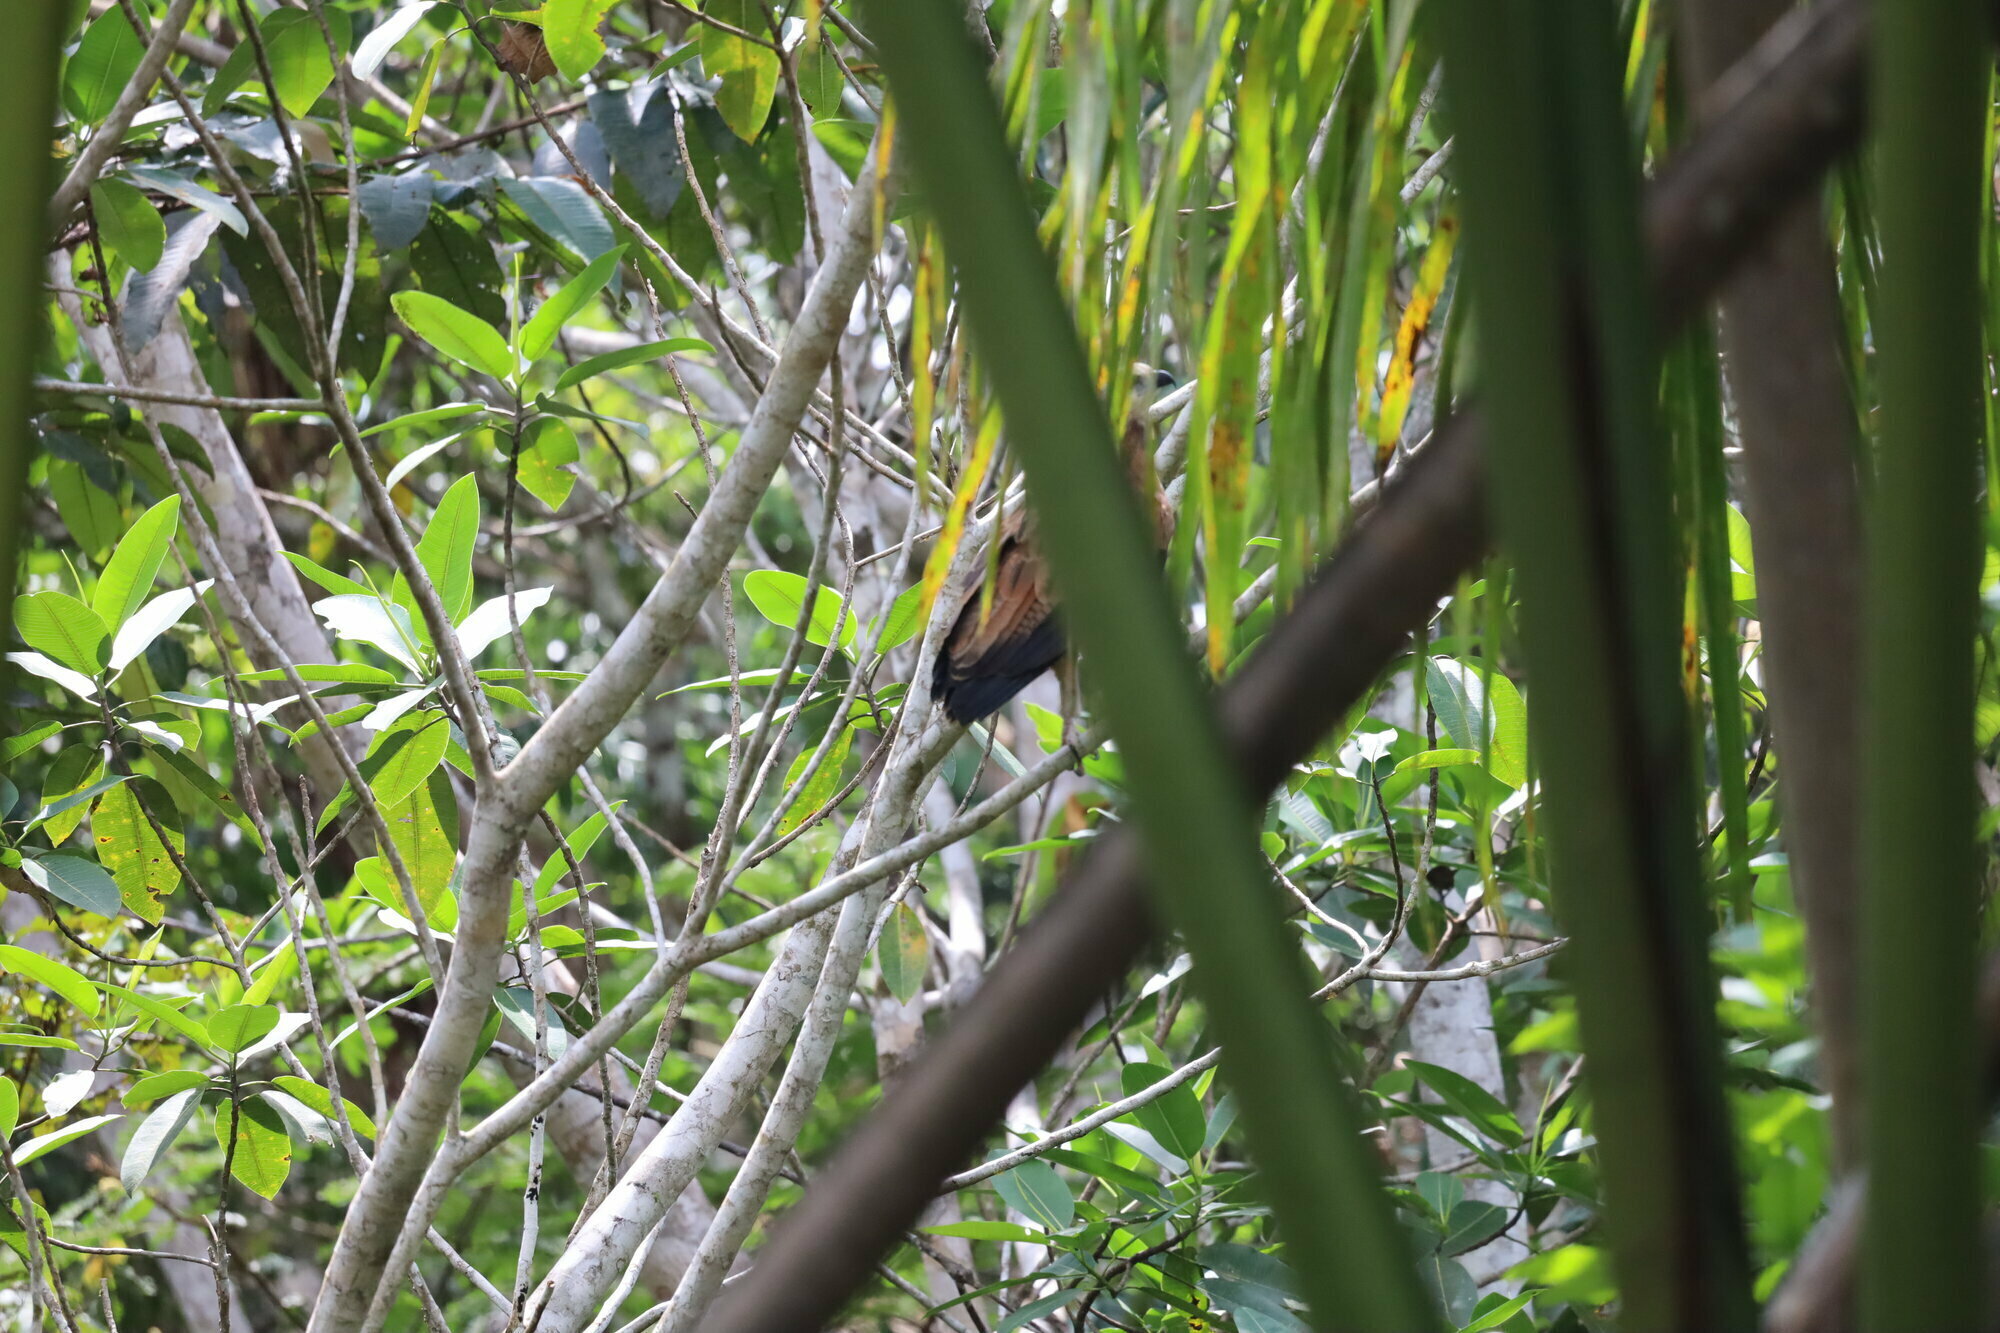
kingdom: Animalia
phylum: Chordata
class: Aves
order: Accipitriformes
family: Accipitridae
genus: Busarellus
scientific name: Busarellus nigricollis
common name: Black-collared hawk
